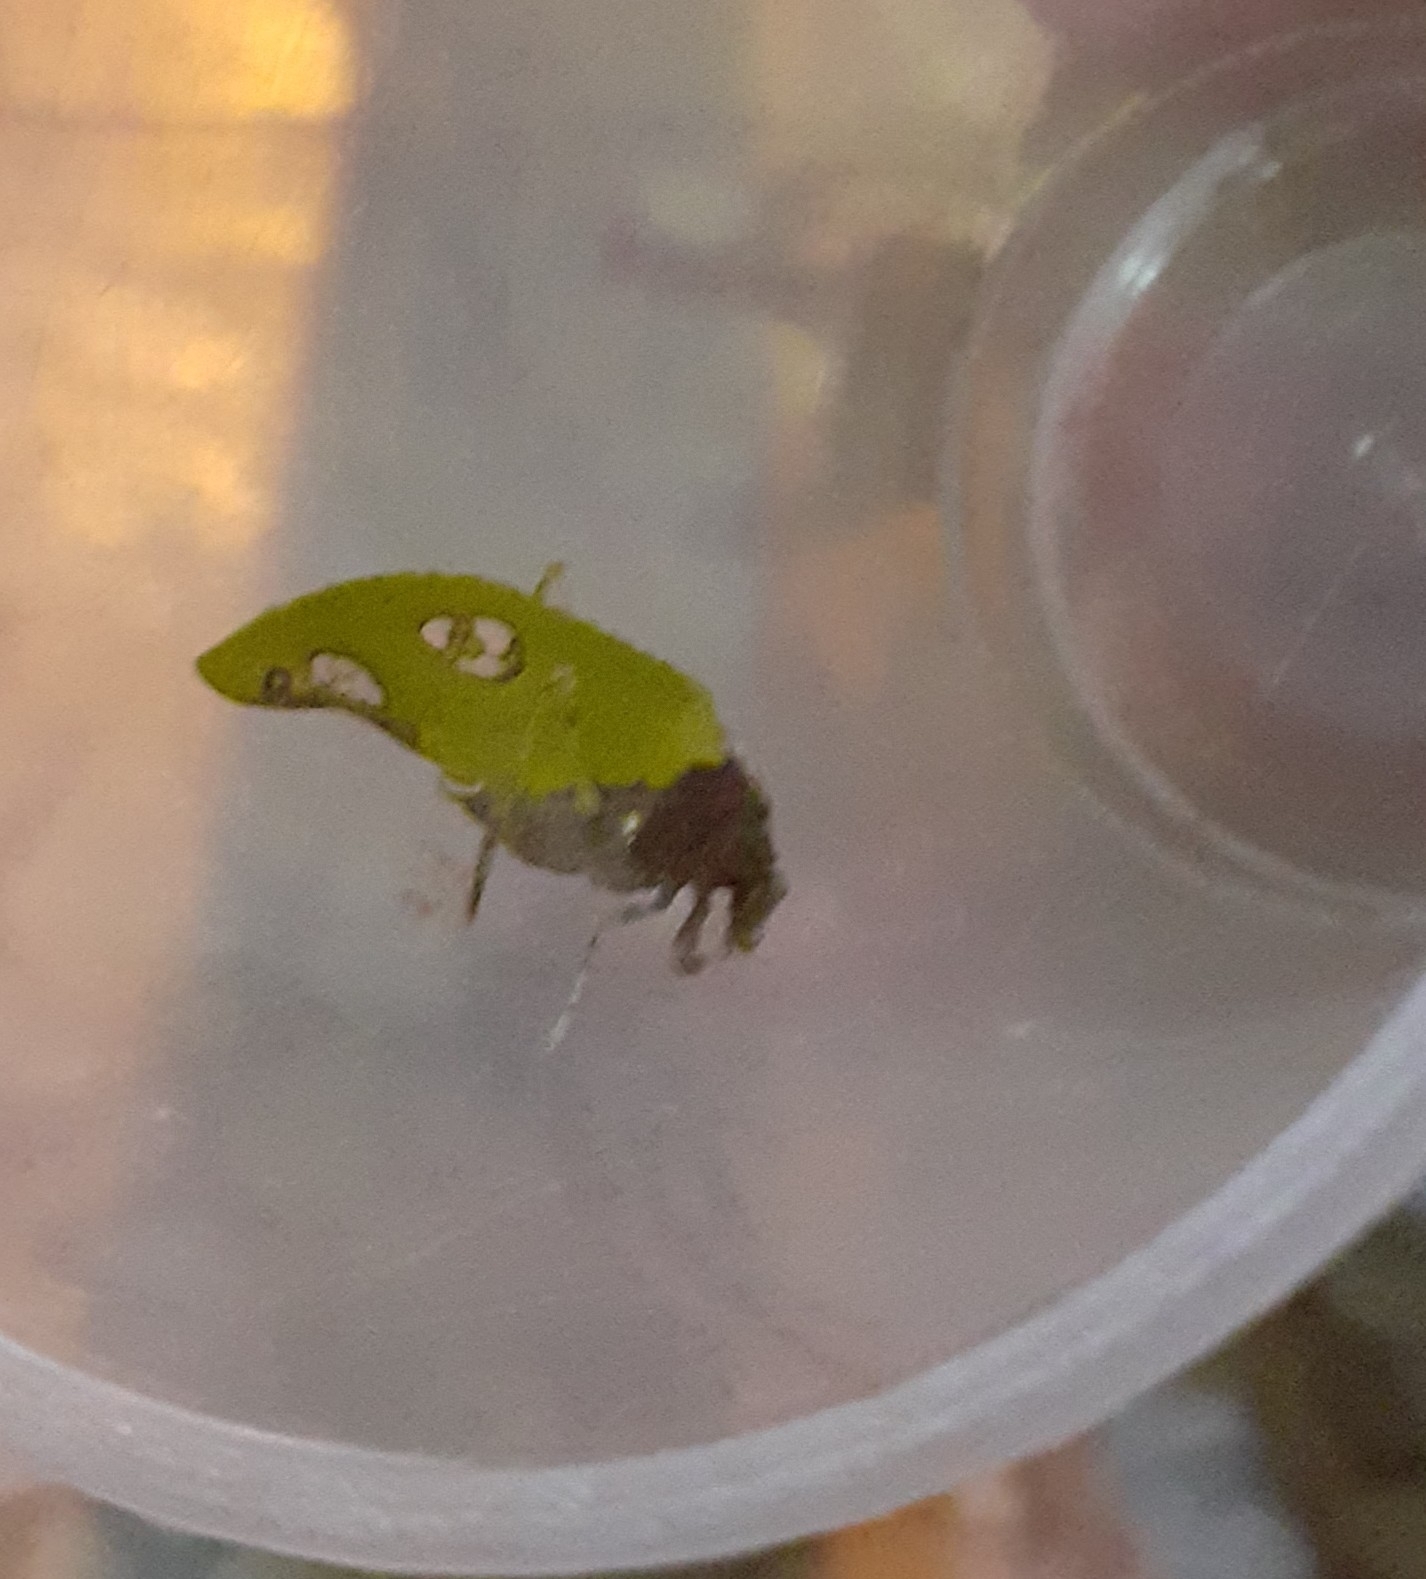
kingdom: Animalia
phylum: Arthropoda
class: Insecta
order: Orthoptera
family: Tettigoniidae
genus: Pycnopalpa
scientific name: Pycnopalpa bicordata
